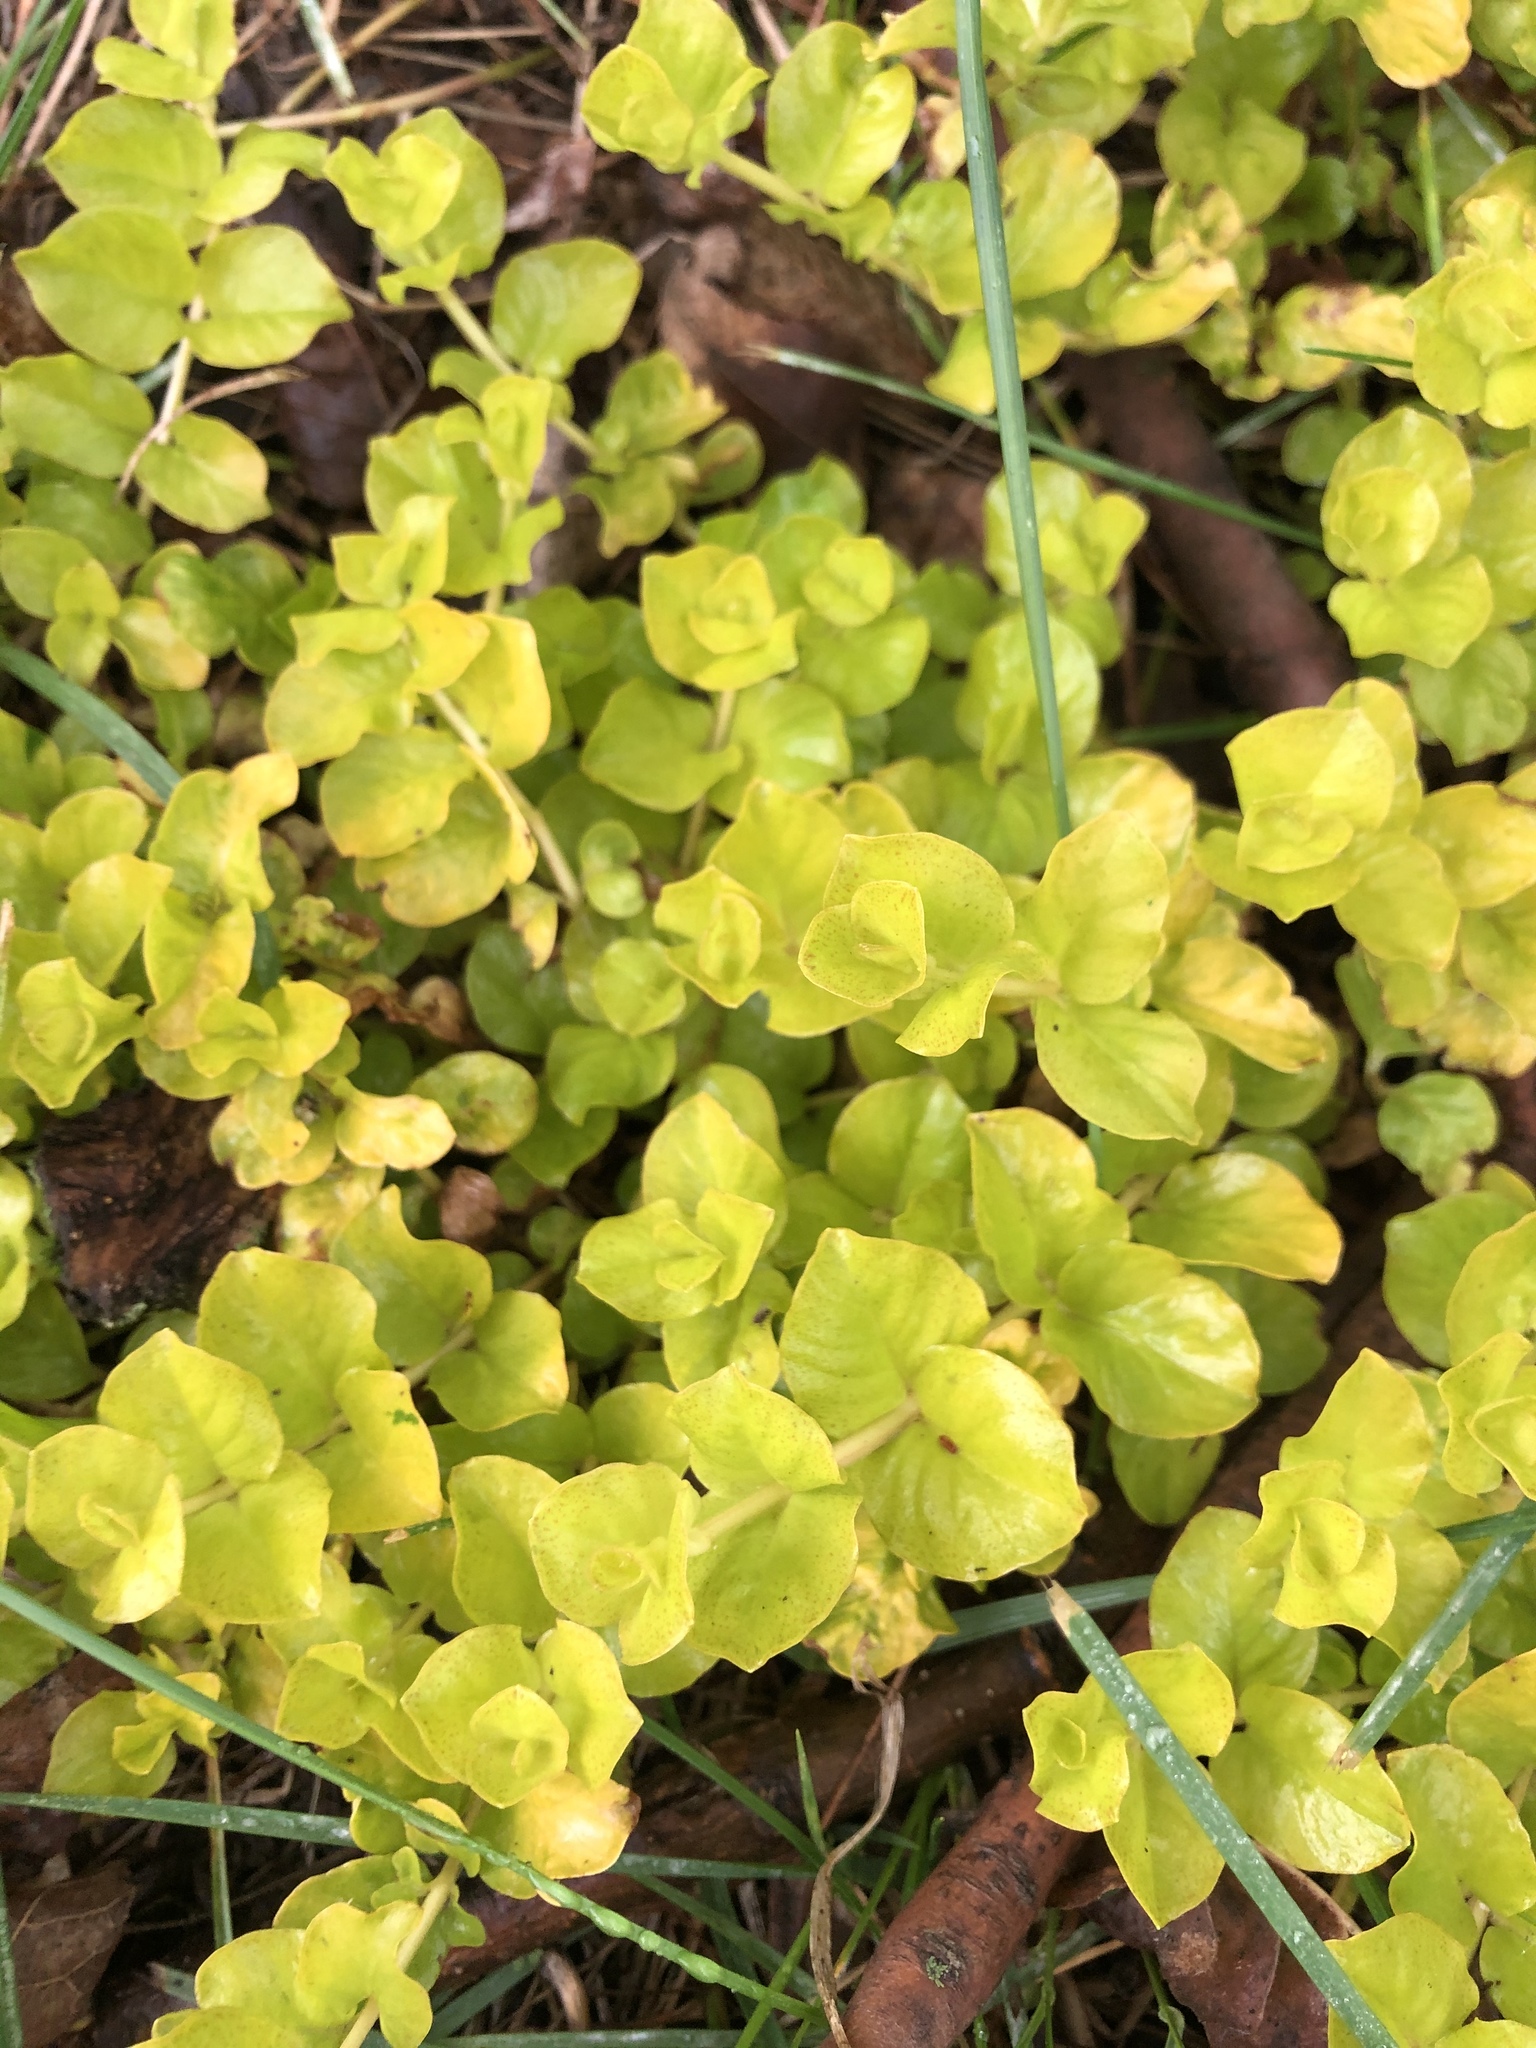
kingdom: Plantae
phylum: Tracheophyta
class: Magnoliopsida
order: Ericales
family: Primulaceae
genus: Lysimachia
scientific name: Lysimachia nummularia
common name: Moneywort
